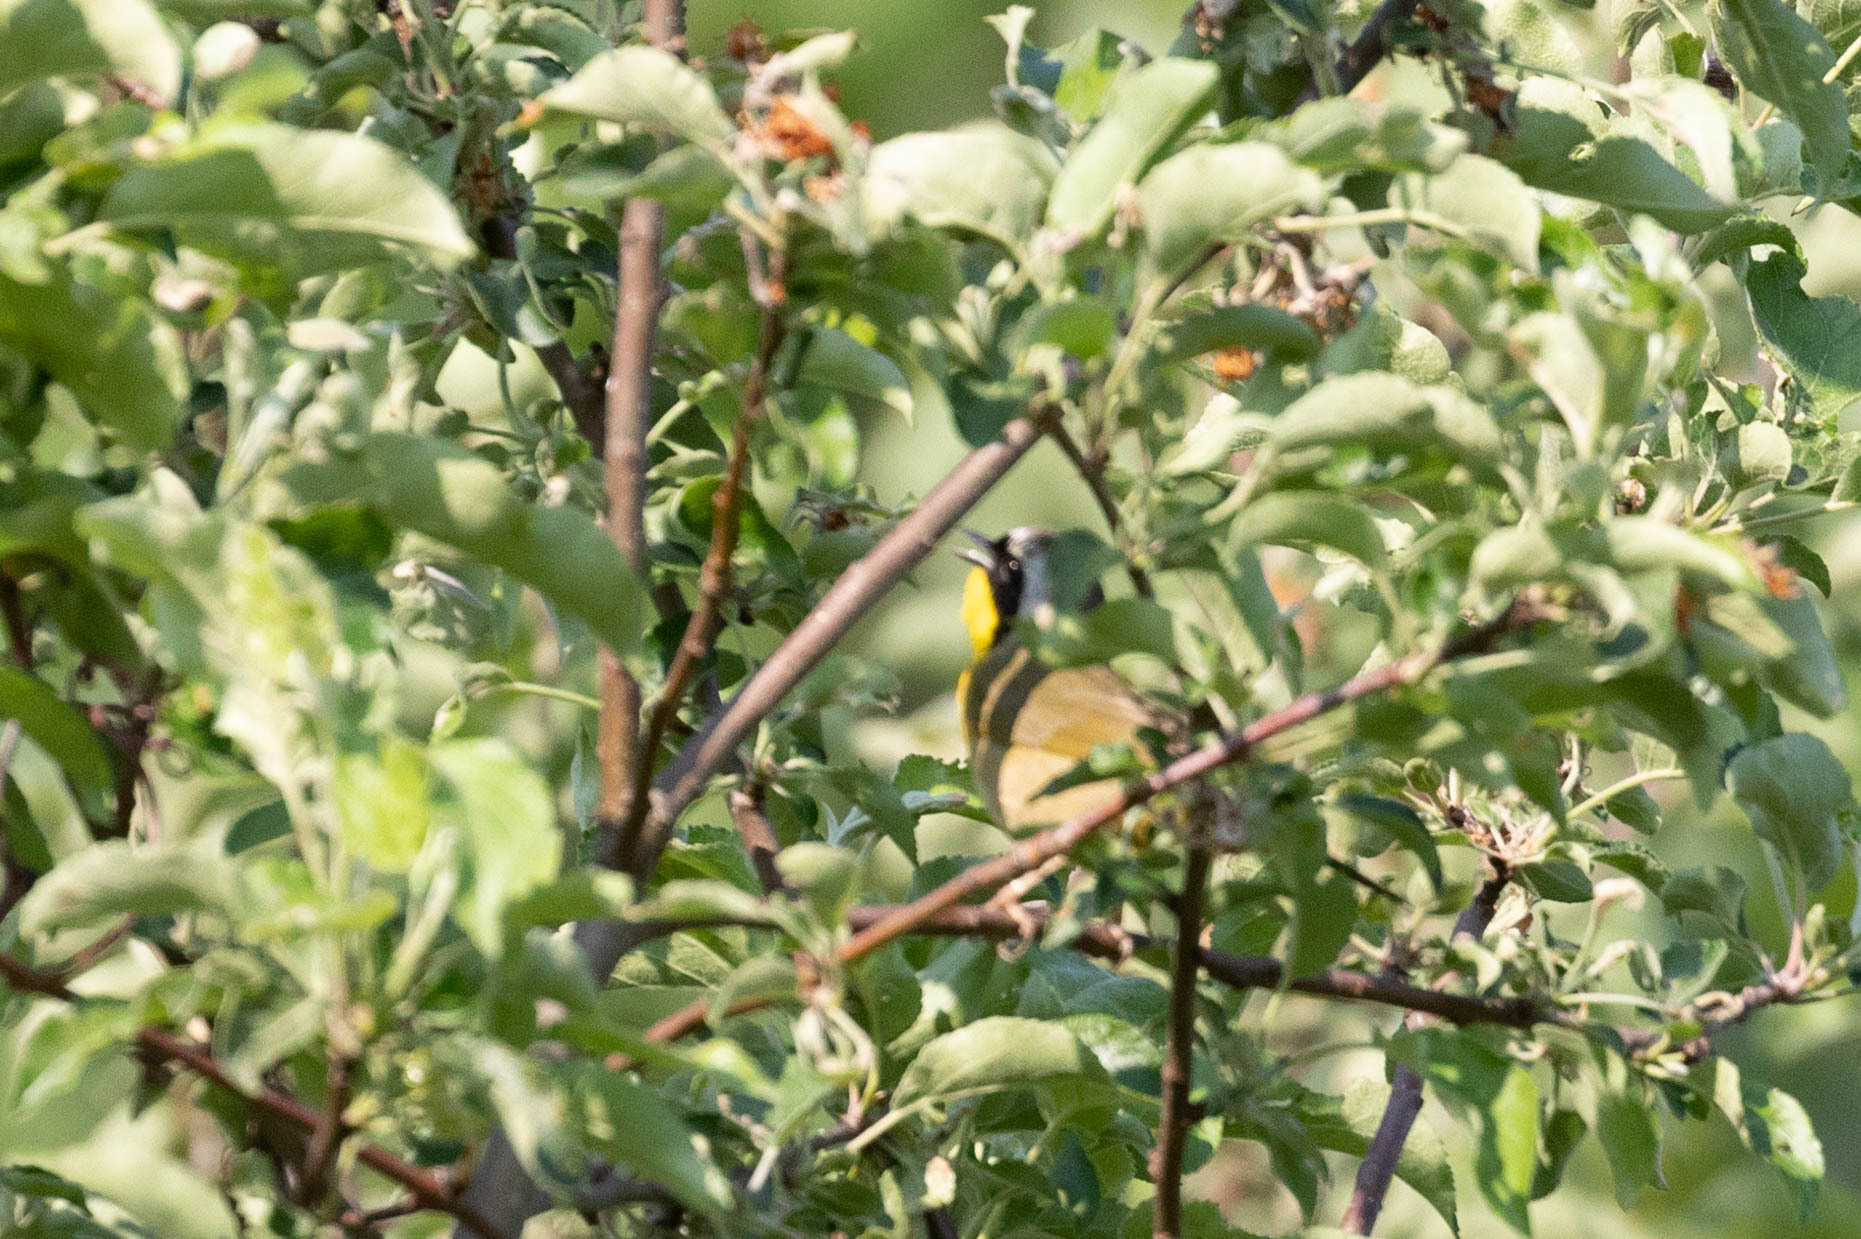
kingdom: Animalia
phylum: Chordata
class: Aves
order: Passeriformes
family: Parulidae
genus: Geothlypis
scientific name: Geothlypis trichas
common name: Common yellowthroat
